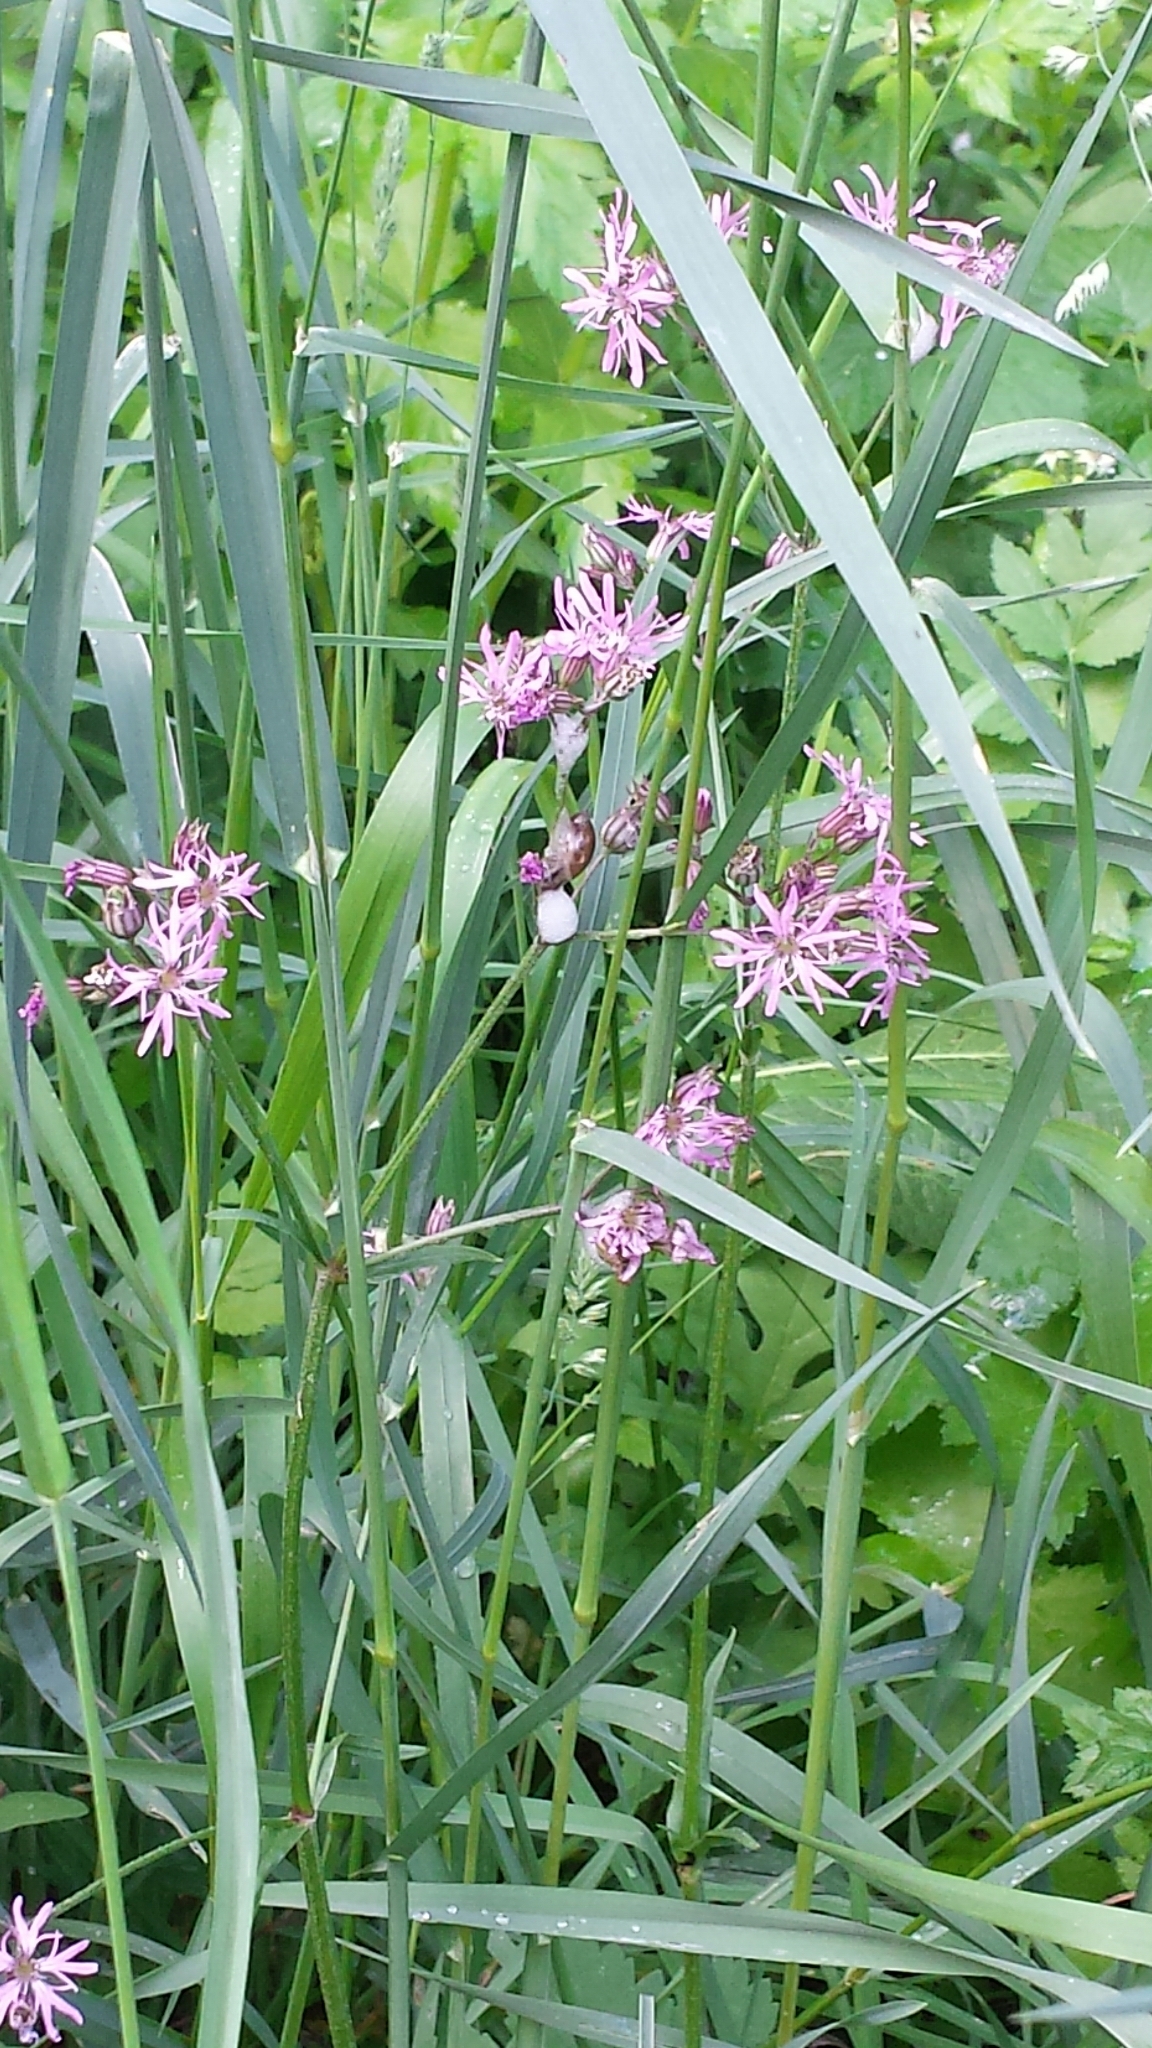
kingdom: Plantae
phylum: Tracheophyta
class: Magnoliopsida
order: Caryophyllales
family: Caryophyllaceae
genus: Silene
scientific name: Silene flos-cuculi
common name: Ragged-robin
